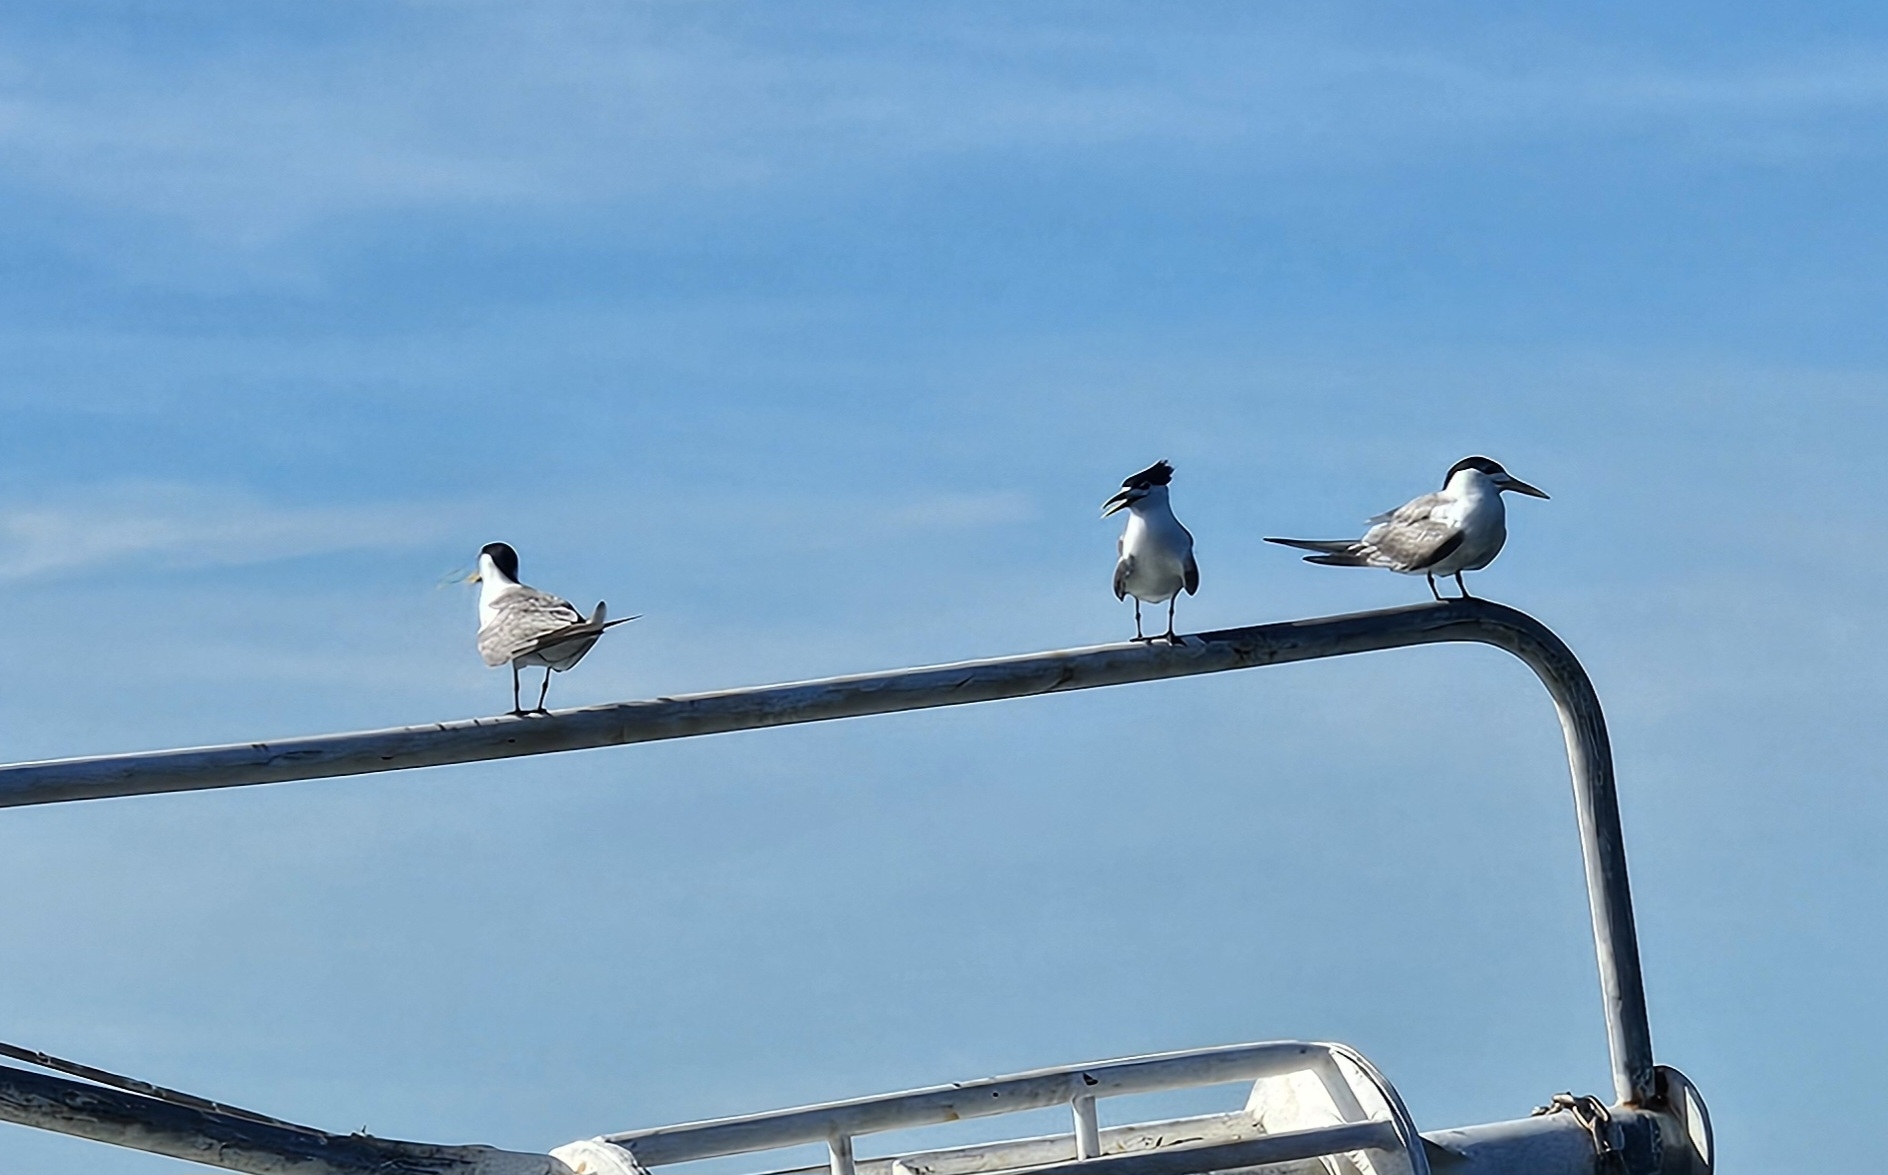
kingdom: Animalia
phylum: Chordata
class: Aves
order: Charadriiformes
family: Laridae
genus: Thalasseus
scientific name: Thalasseus bergii
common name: Greater crested tern
